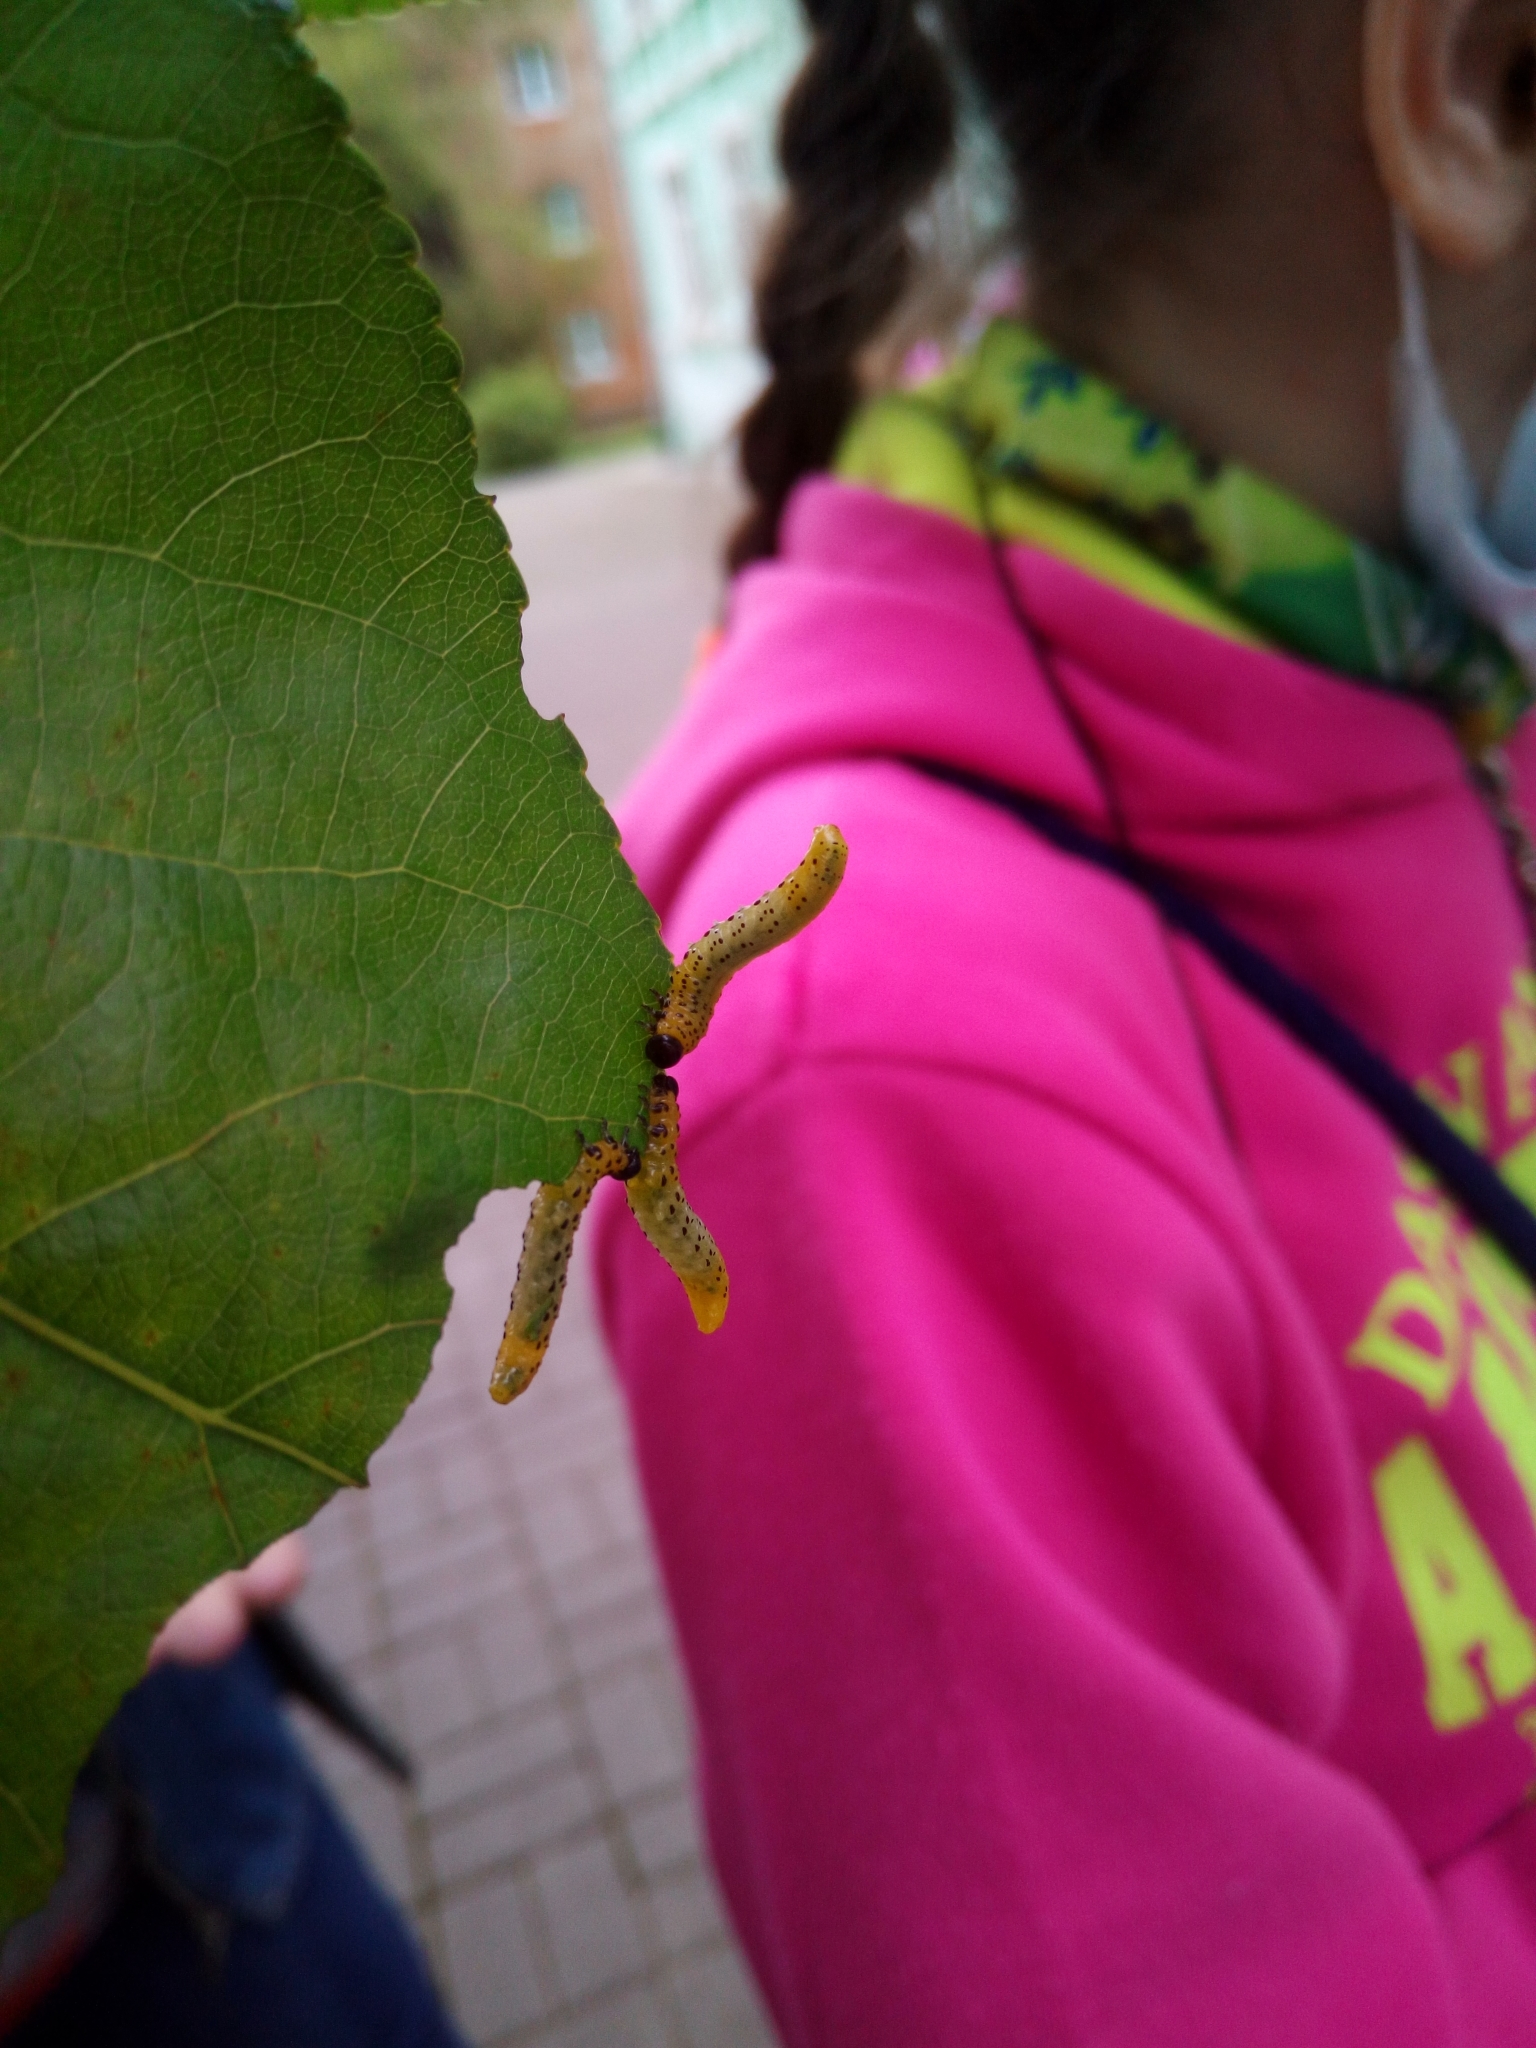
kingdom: Animalia
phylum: Arthropoda
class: Insecta
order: Hymenoptera
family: Tenthredinidae
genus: Pristiphora
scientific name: Pristiphora conjugata
